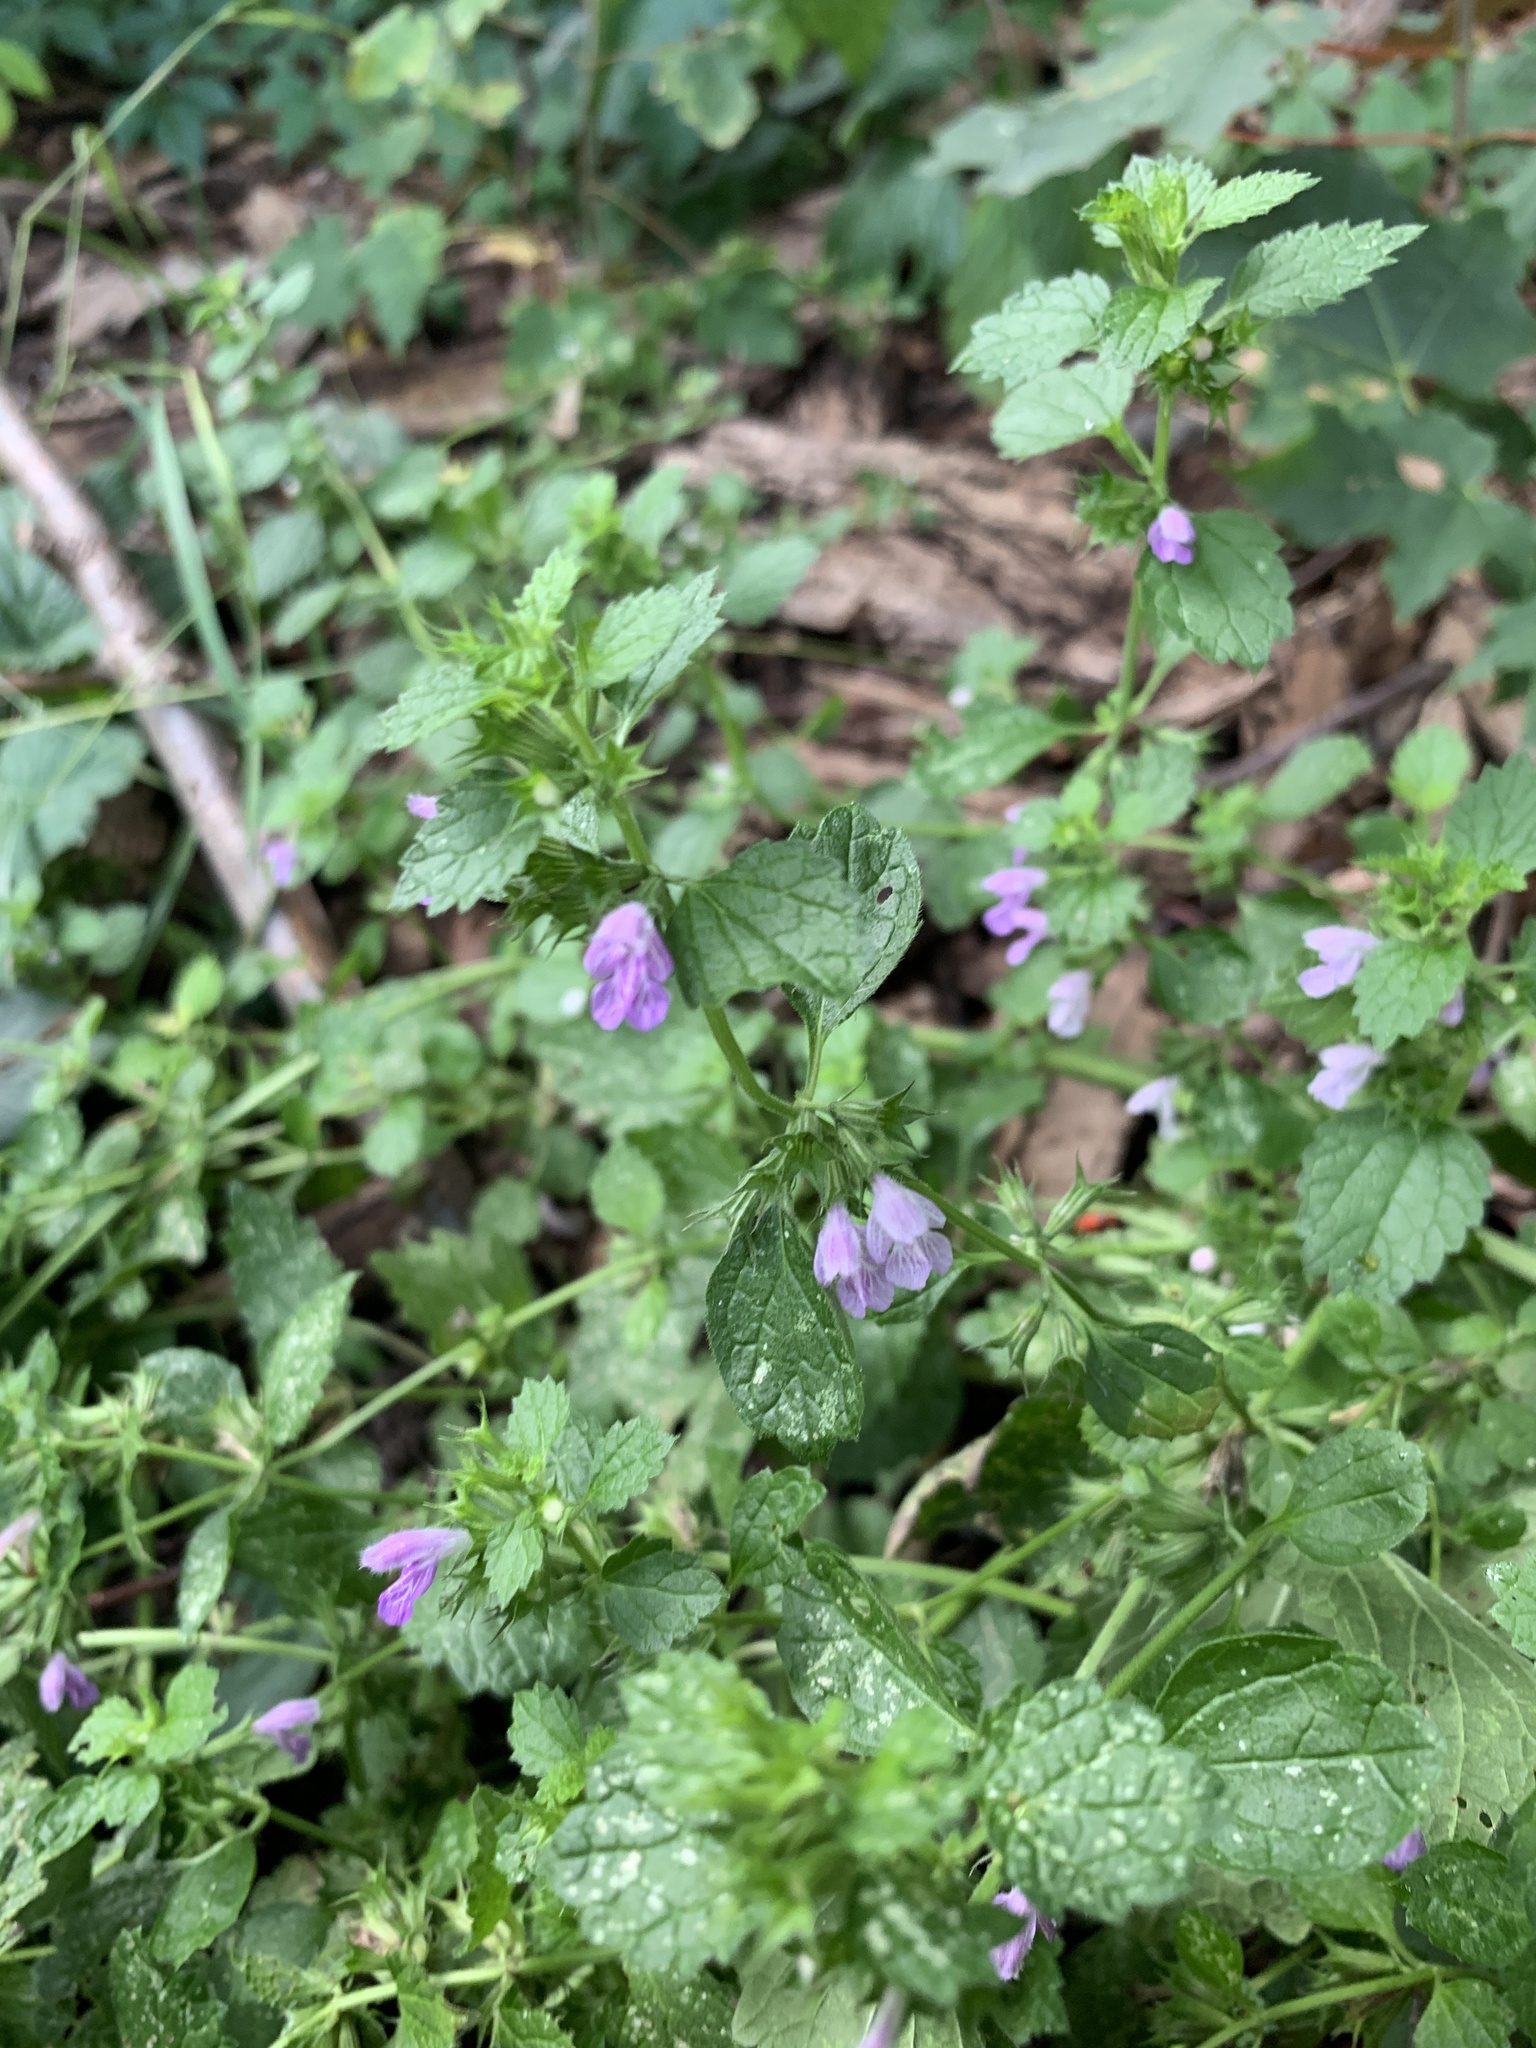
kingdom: Plantae
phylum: Tracheophyta
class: Magnoliopsida
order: Lamiales
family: Lamiaceae
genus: Ballota
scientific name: Ballota nigra
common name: Black horehound
